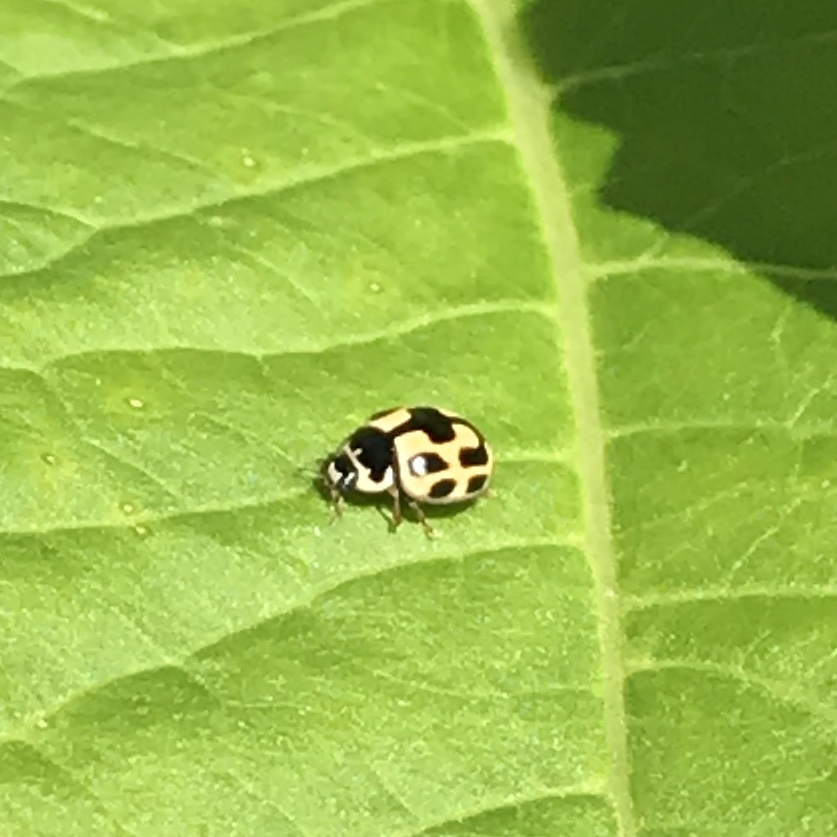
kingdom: Animalia
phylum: Arthropoda
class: Insecta
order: Coleoptera
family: Coccinellidae
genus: Propylaea
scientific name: Propylaea quatuordecimpunctata
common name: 14-spotted ladybird beetle
